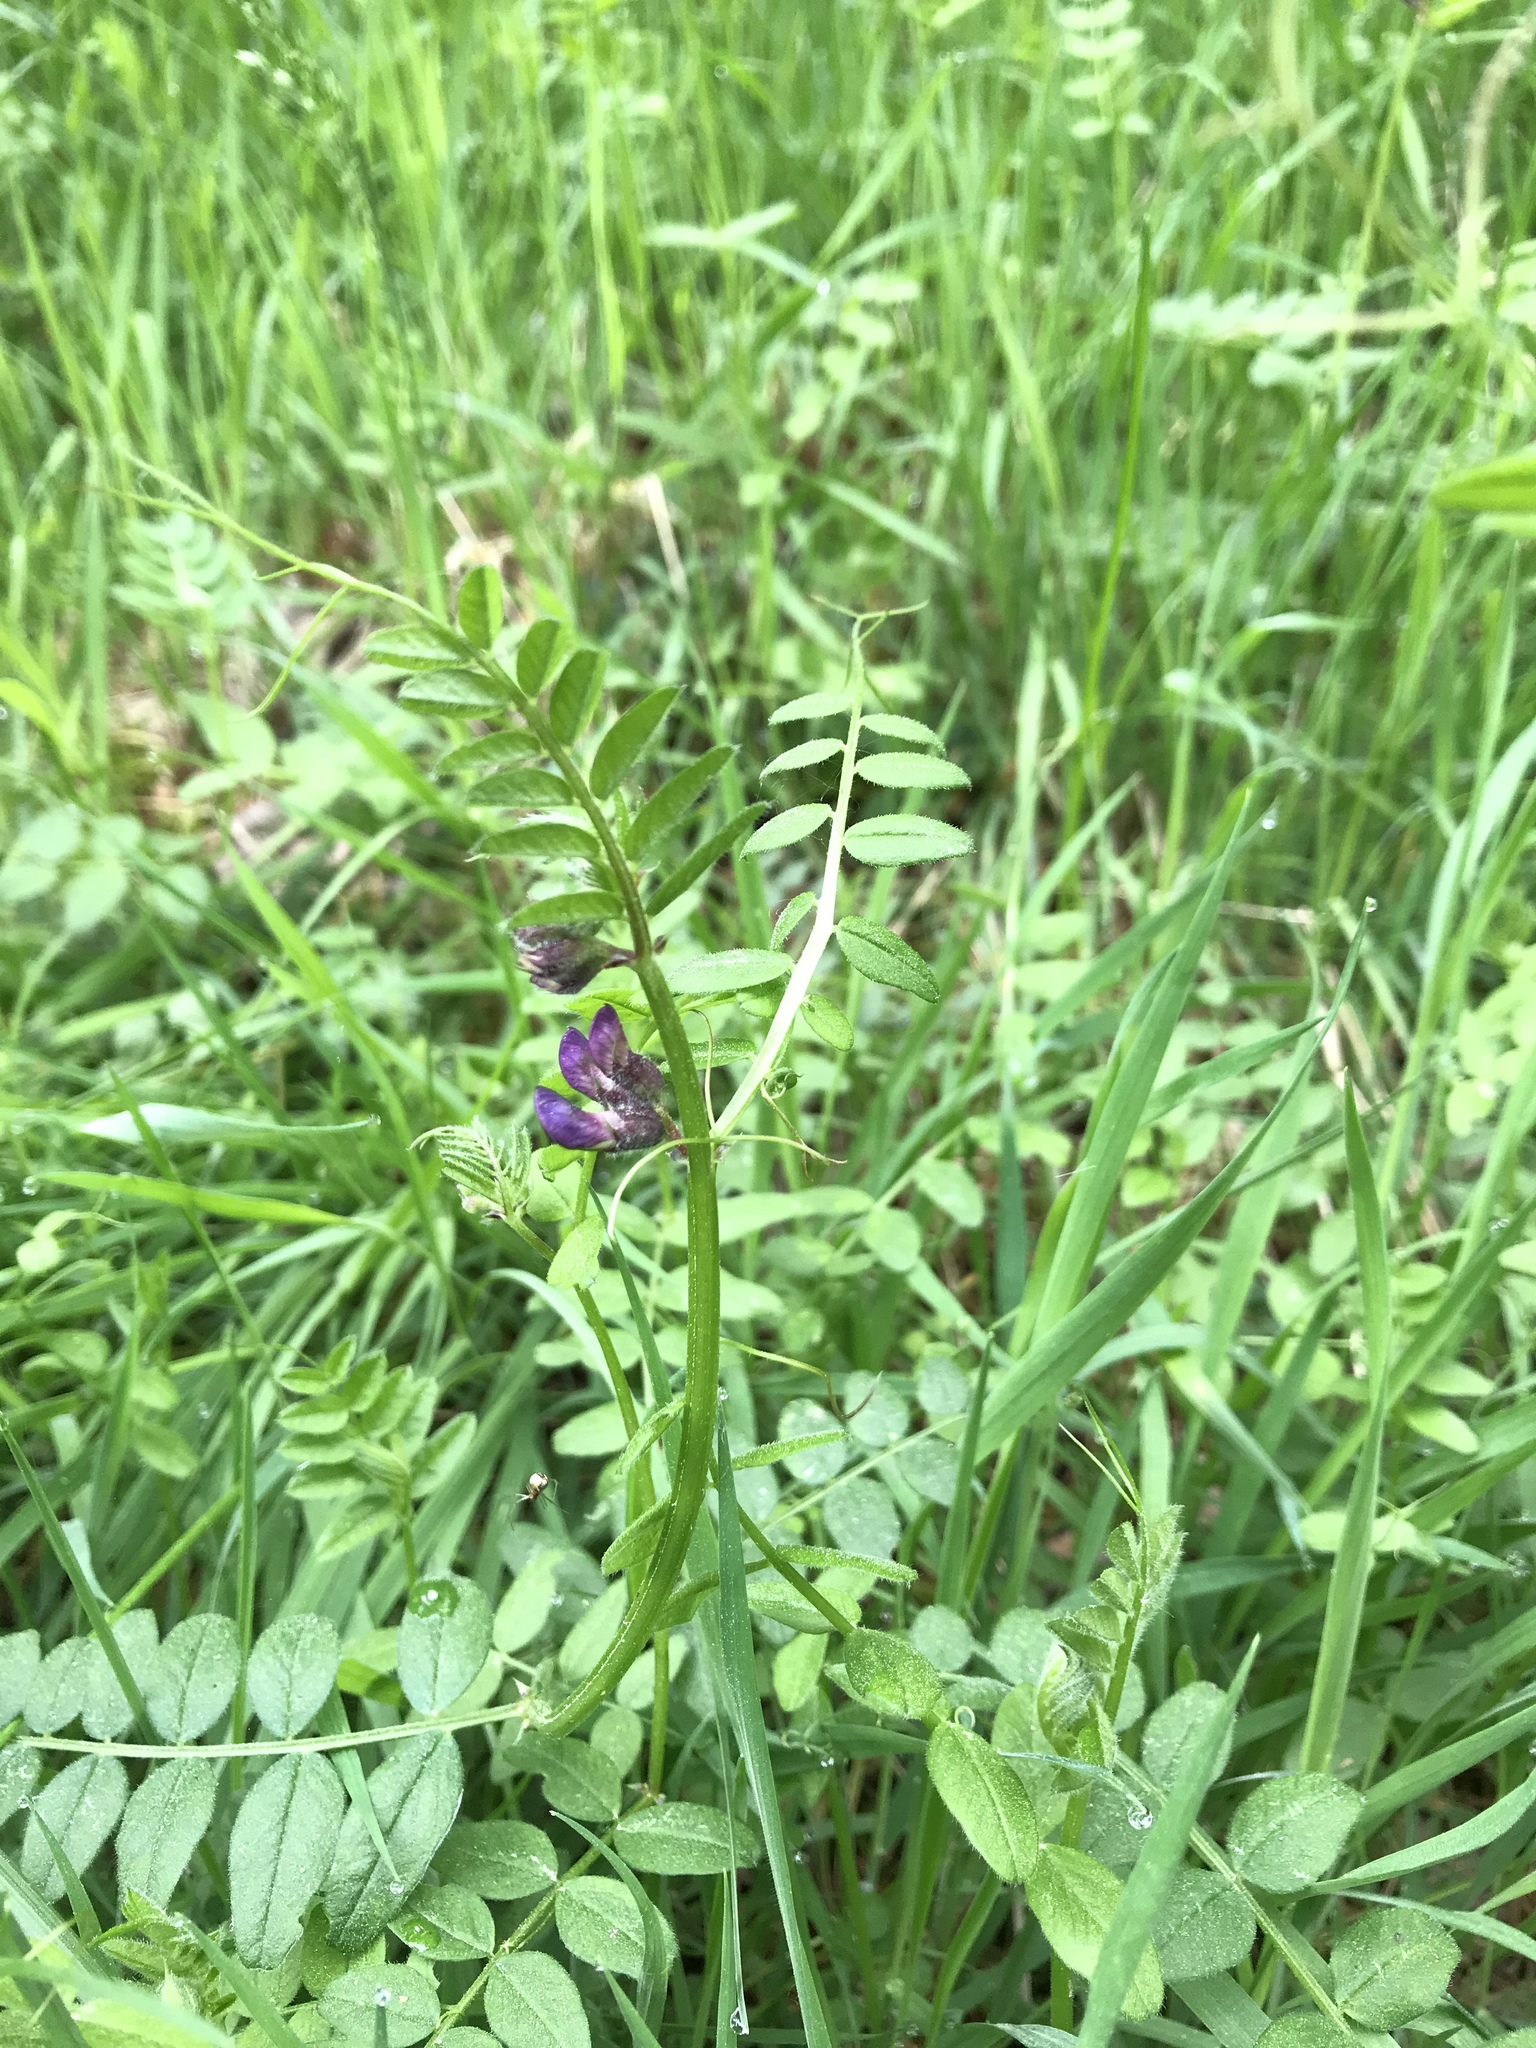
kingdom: Plantae
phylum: Tracheophyta
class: Magnoliopsida
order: Fabales
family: Fabaceae
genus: Vicia
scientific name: Vicia sepium
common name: Bush vetch
